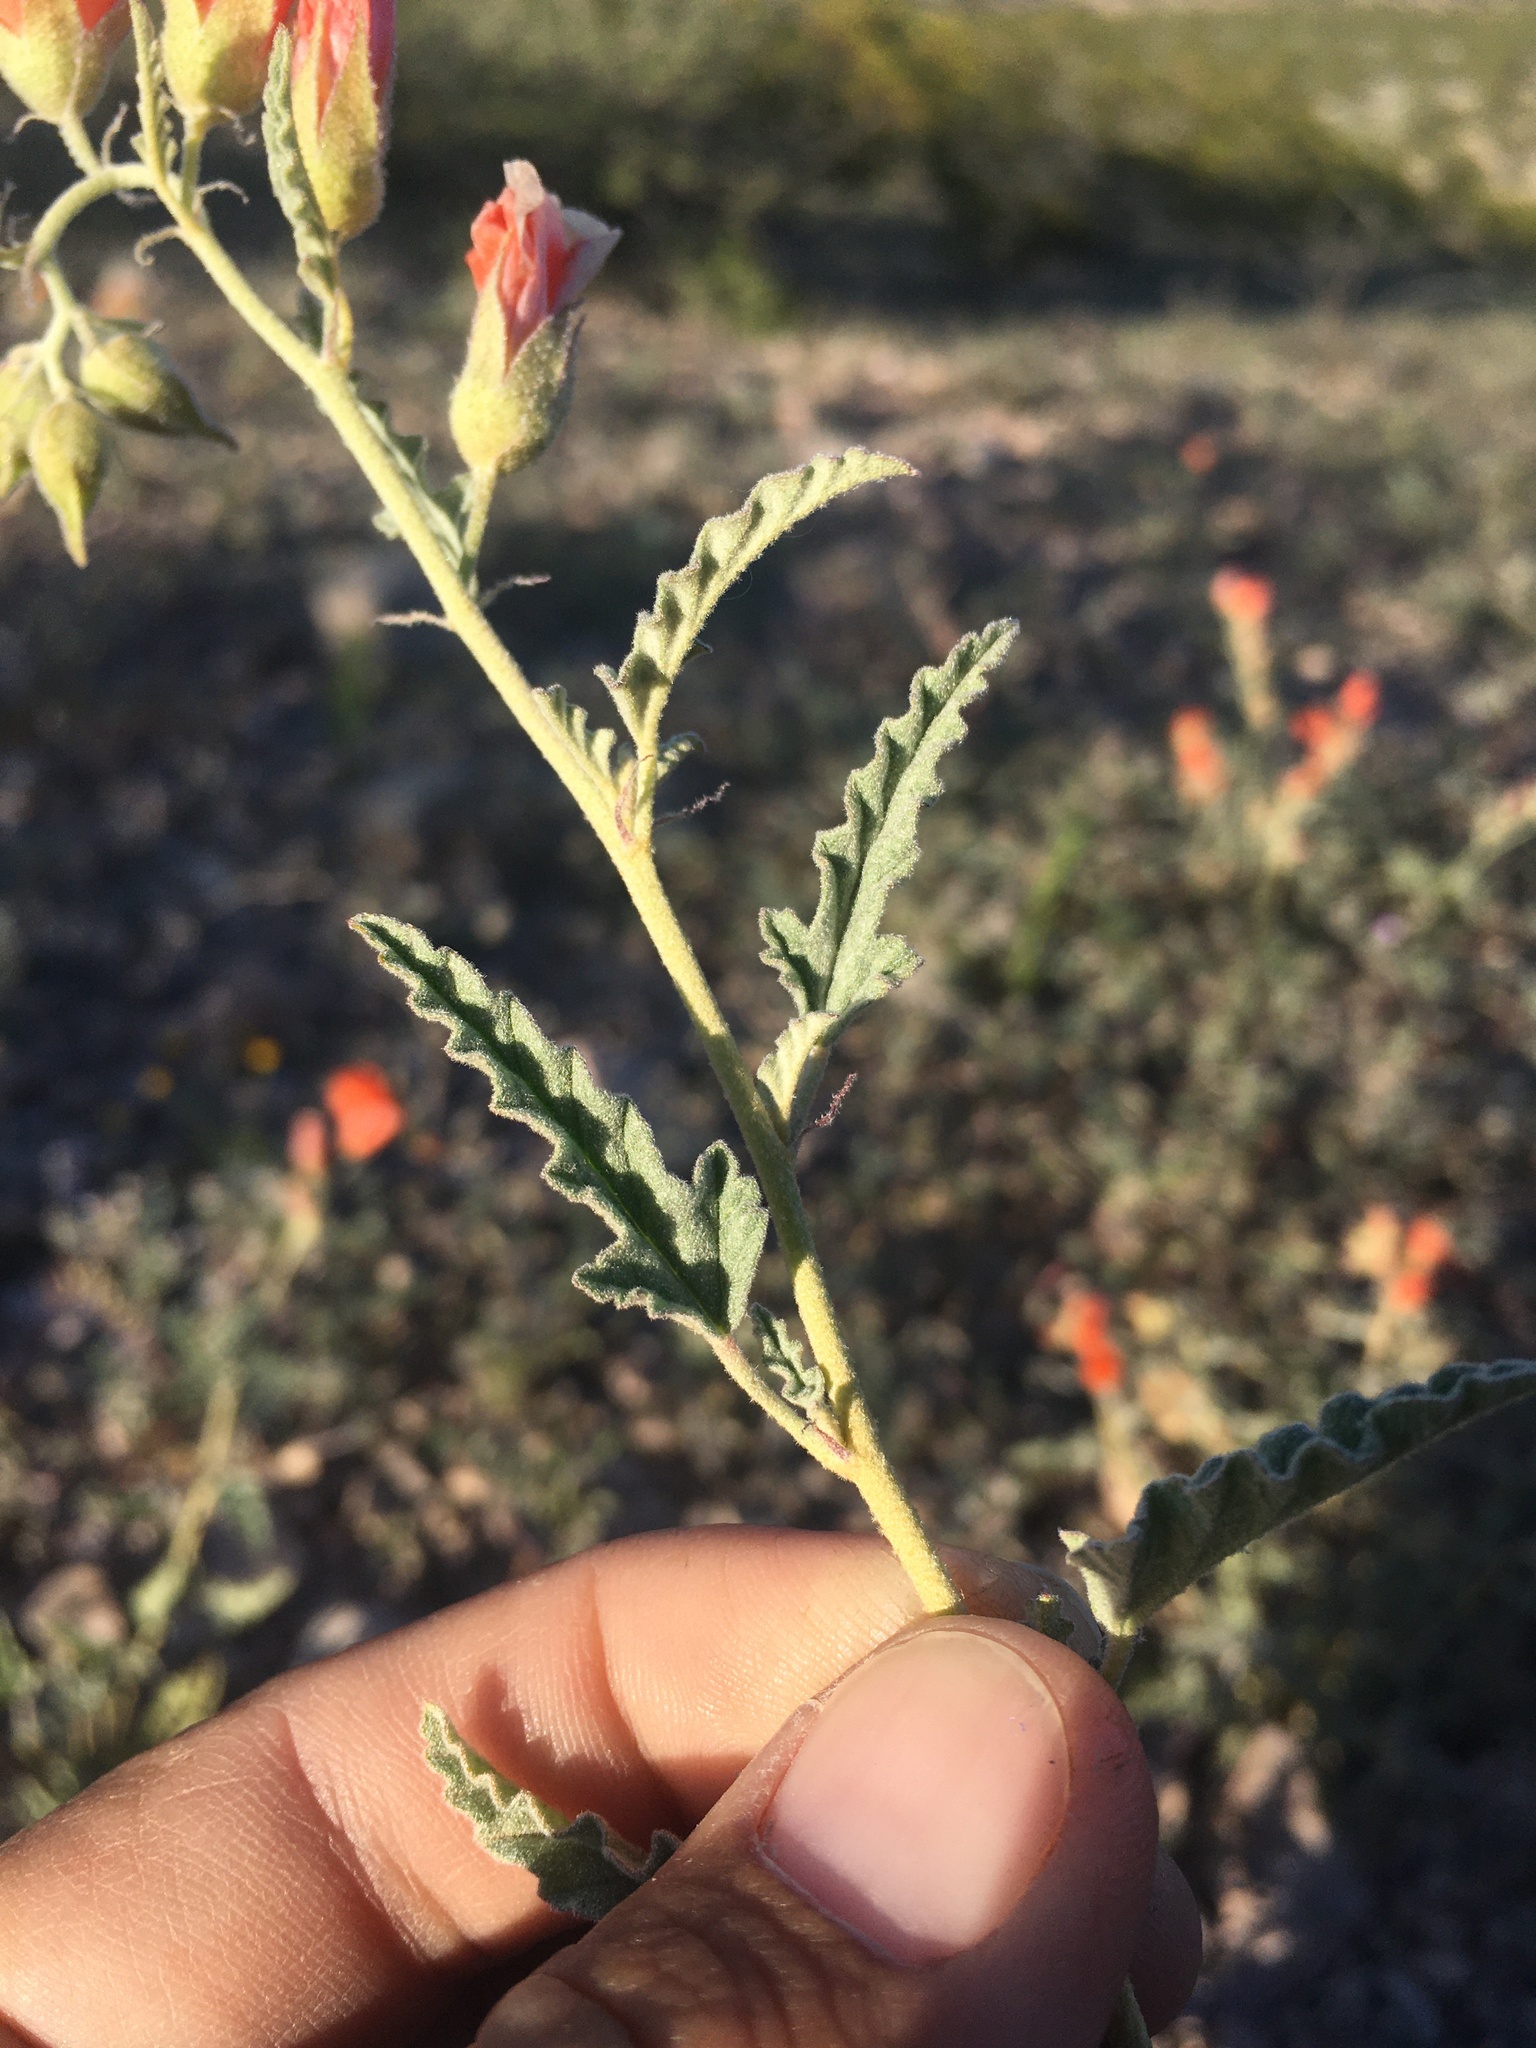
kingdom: Plantae
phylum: Tracheophyta
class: Magnoliopsida
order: Malvales
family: Malvaceae
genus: Sphaeralcea
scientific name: Sphaeralcea hastulata
